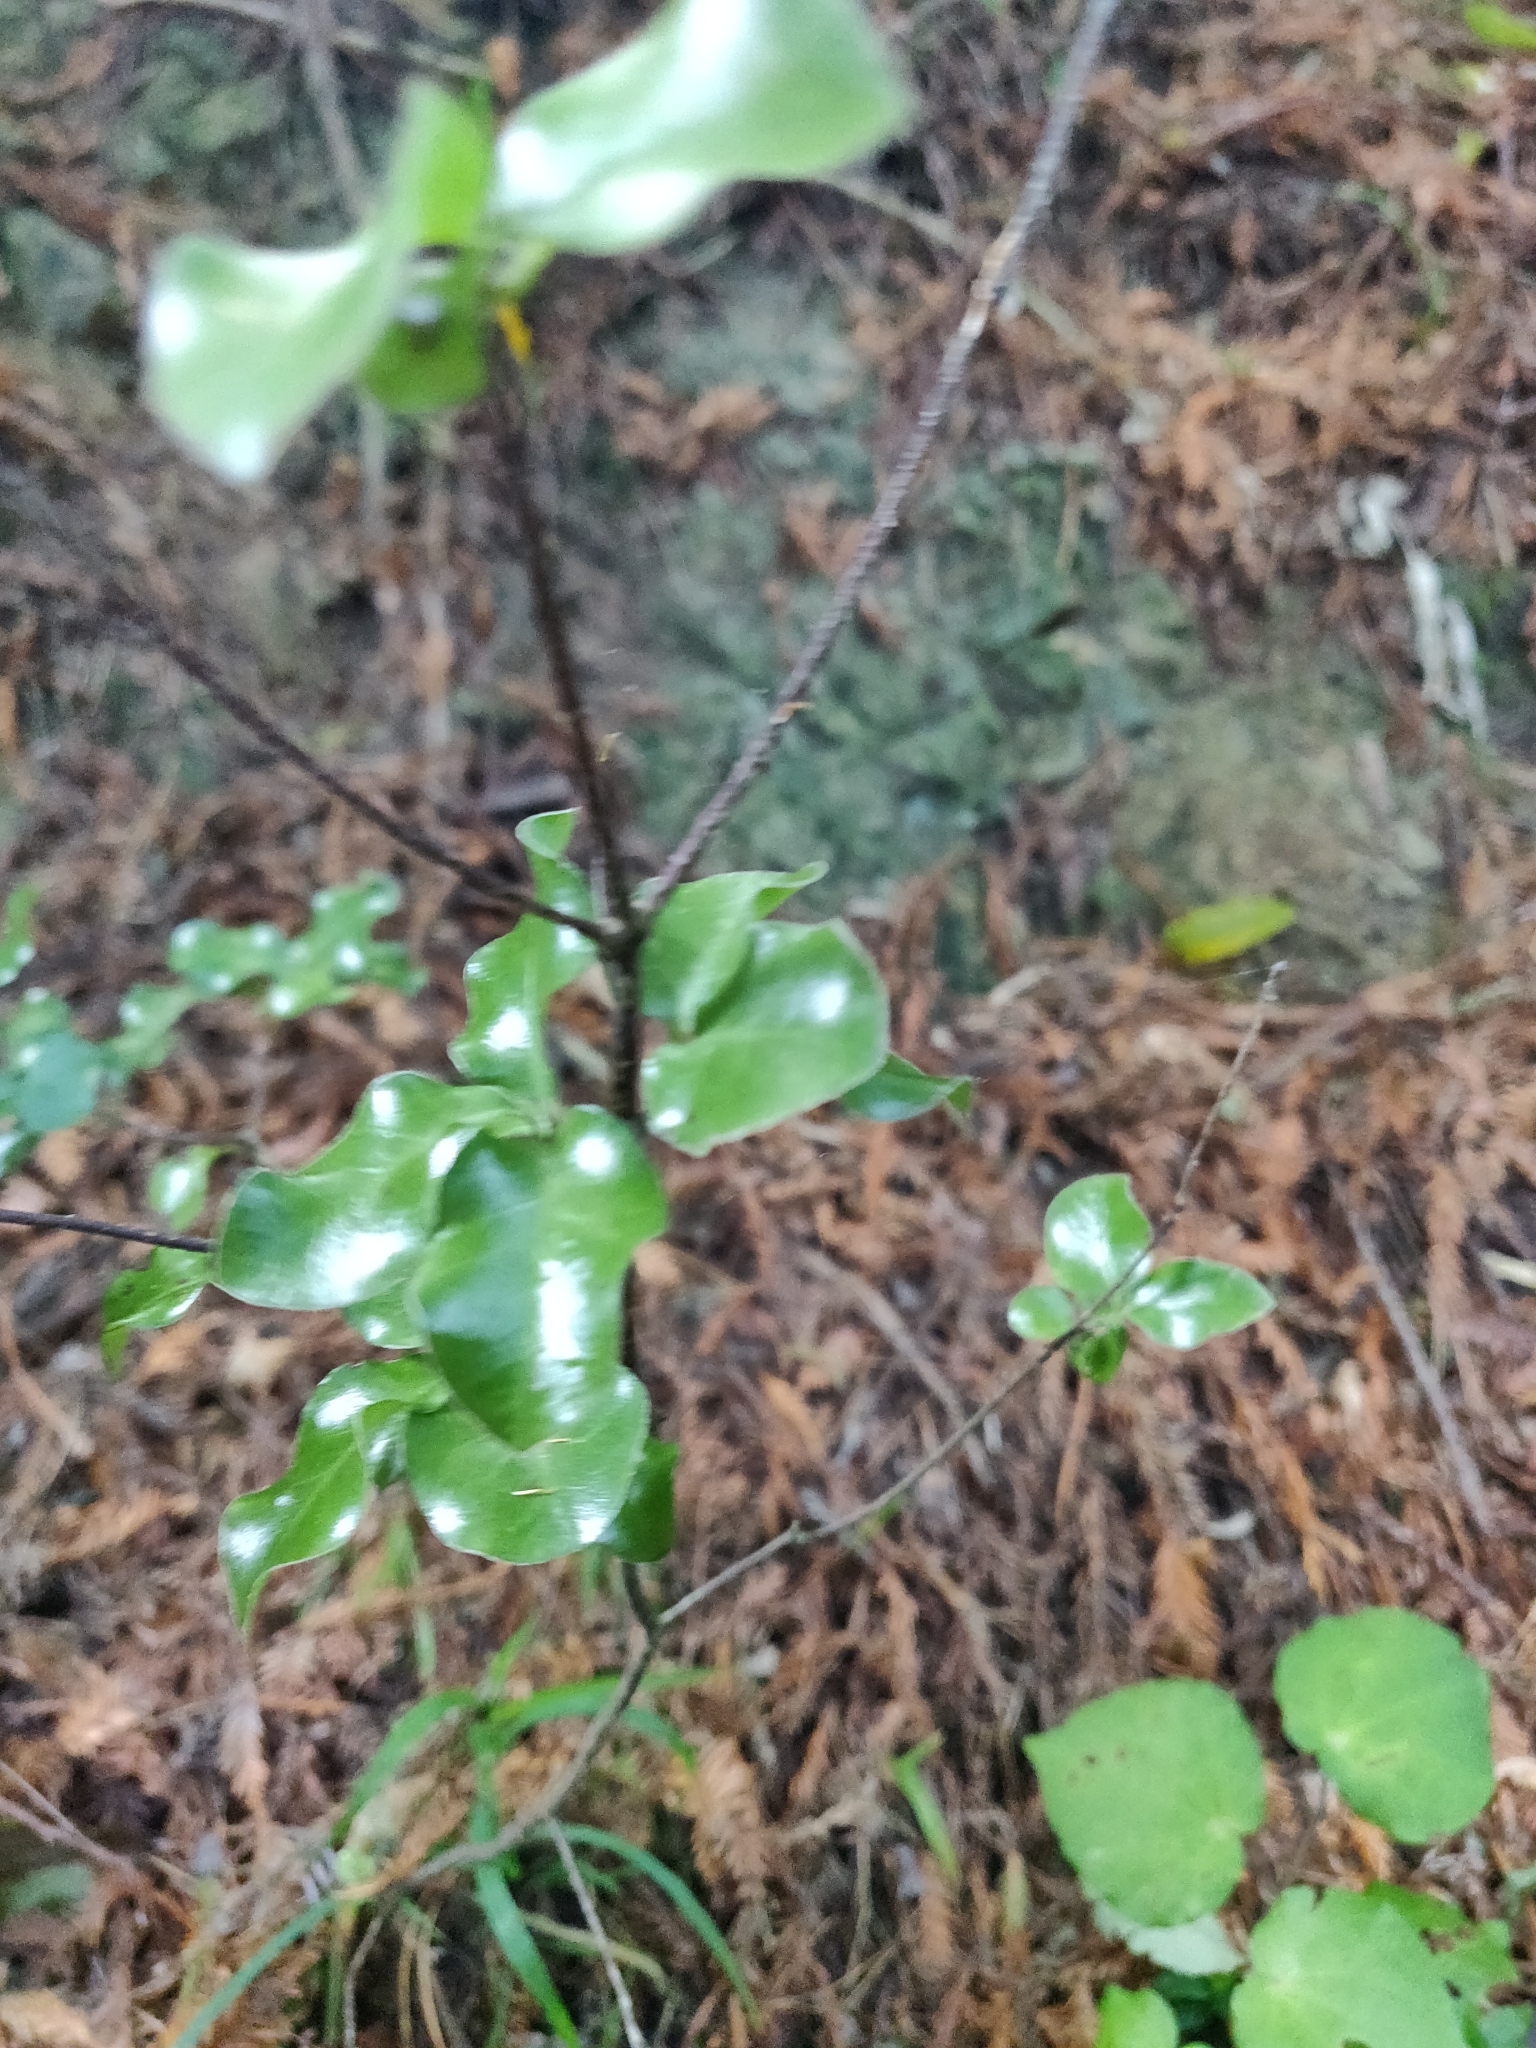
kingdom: Plantae
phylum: Tracheophyta
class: Magnoliopsida
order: Apiales
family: Pittosporaceae
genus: Pittosporum
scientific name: Pittosporum tenuifolium
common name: Kohuhu
